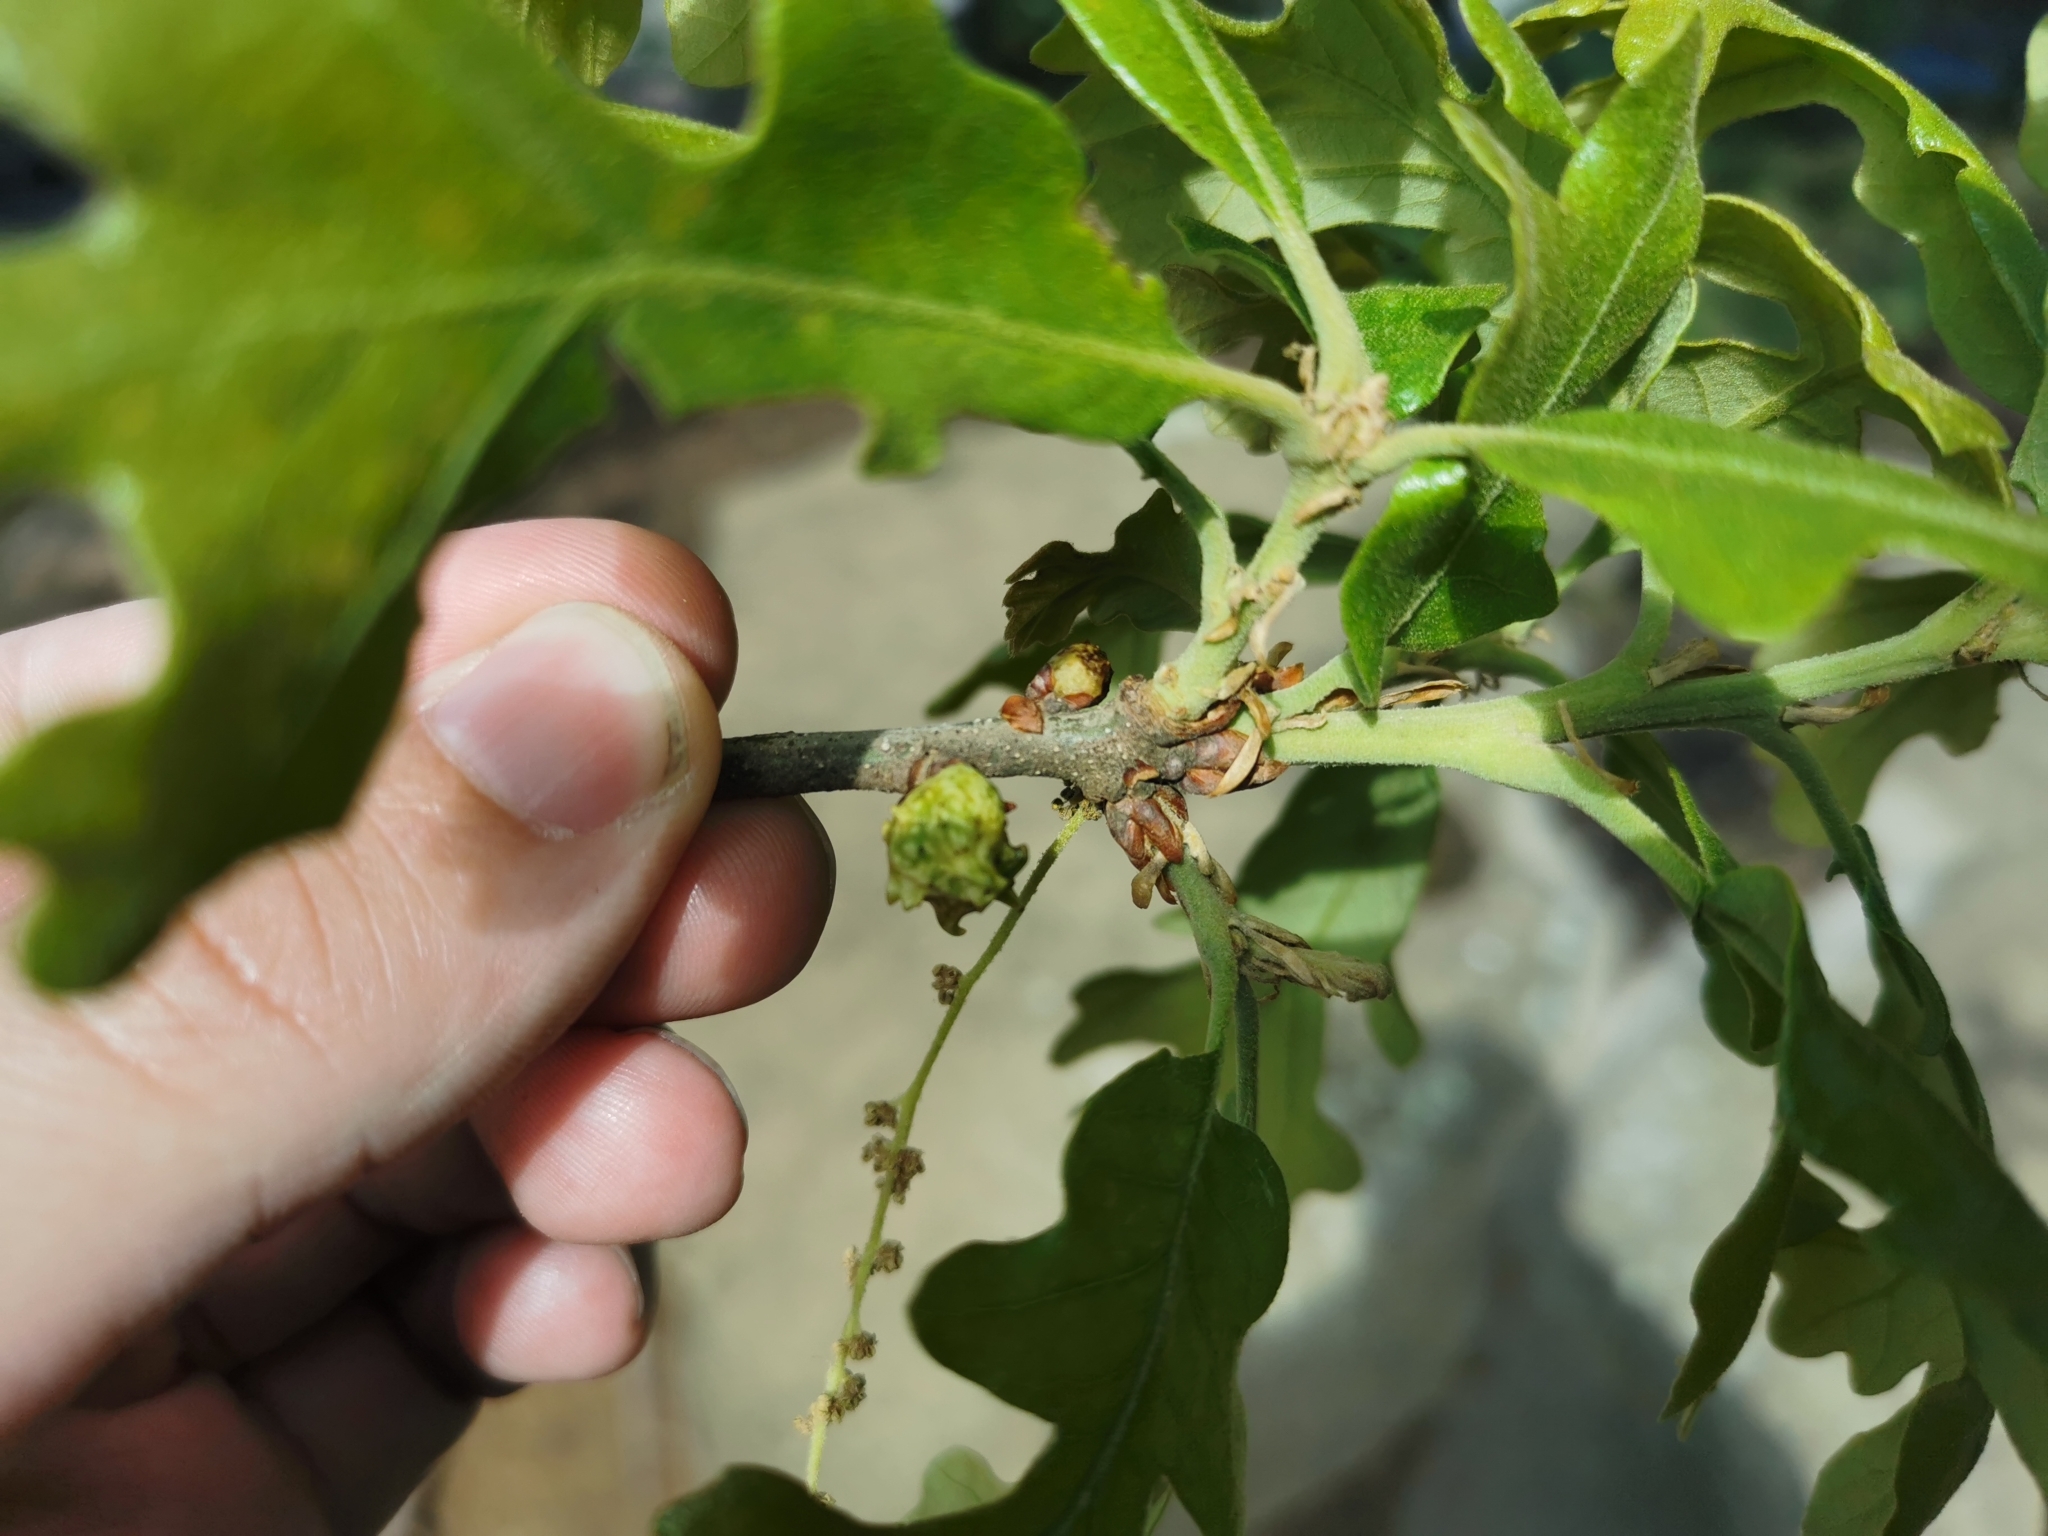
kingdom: Animalia
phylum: Arthropoda
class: Insecta
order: Hymenoptera
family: Cynipidae
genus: Andricus
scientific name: Andricus
